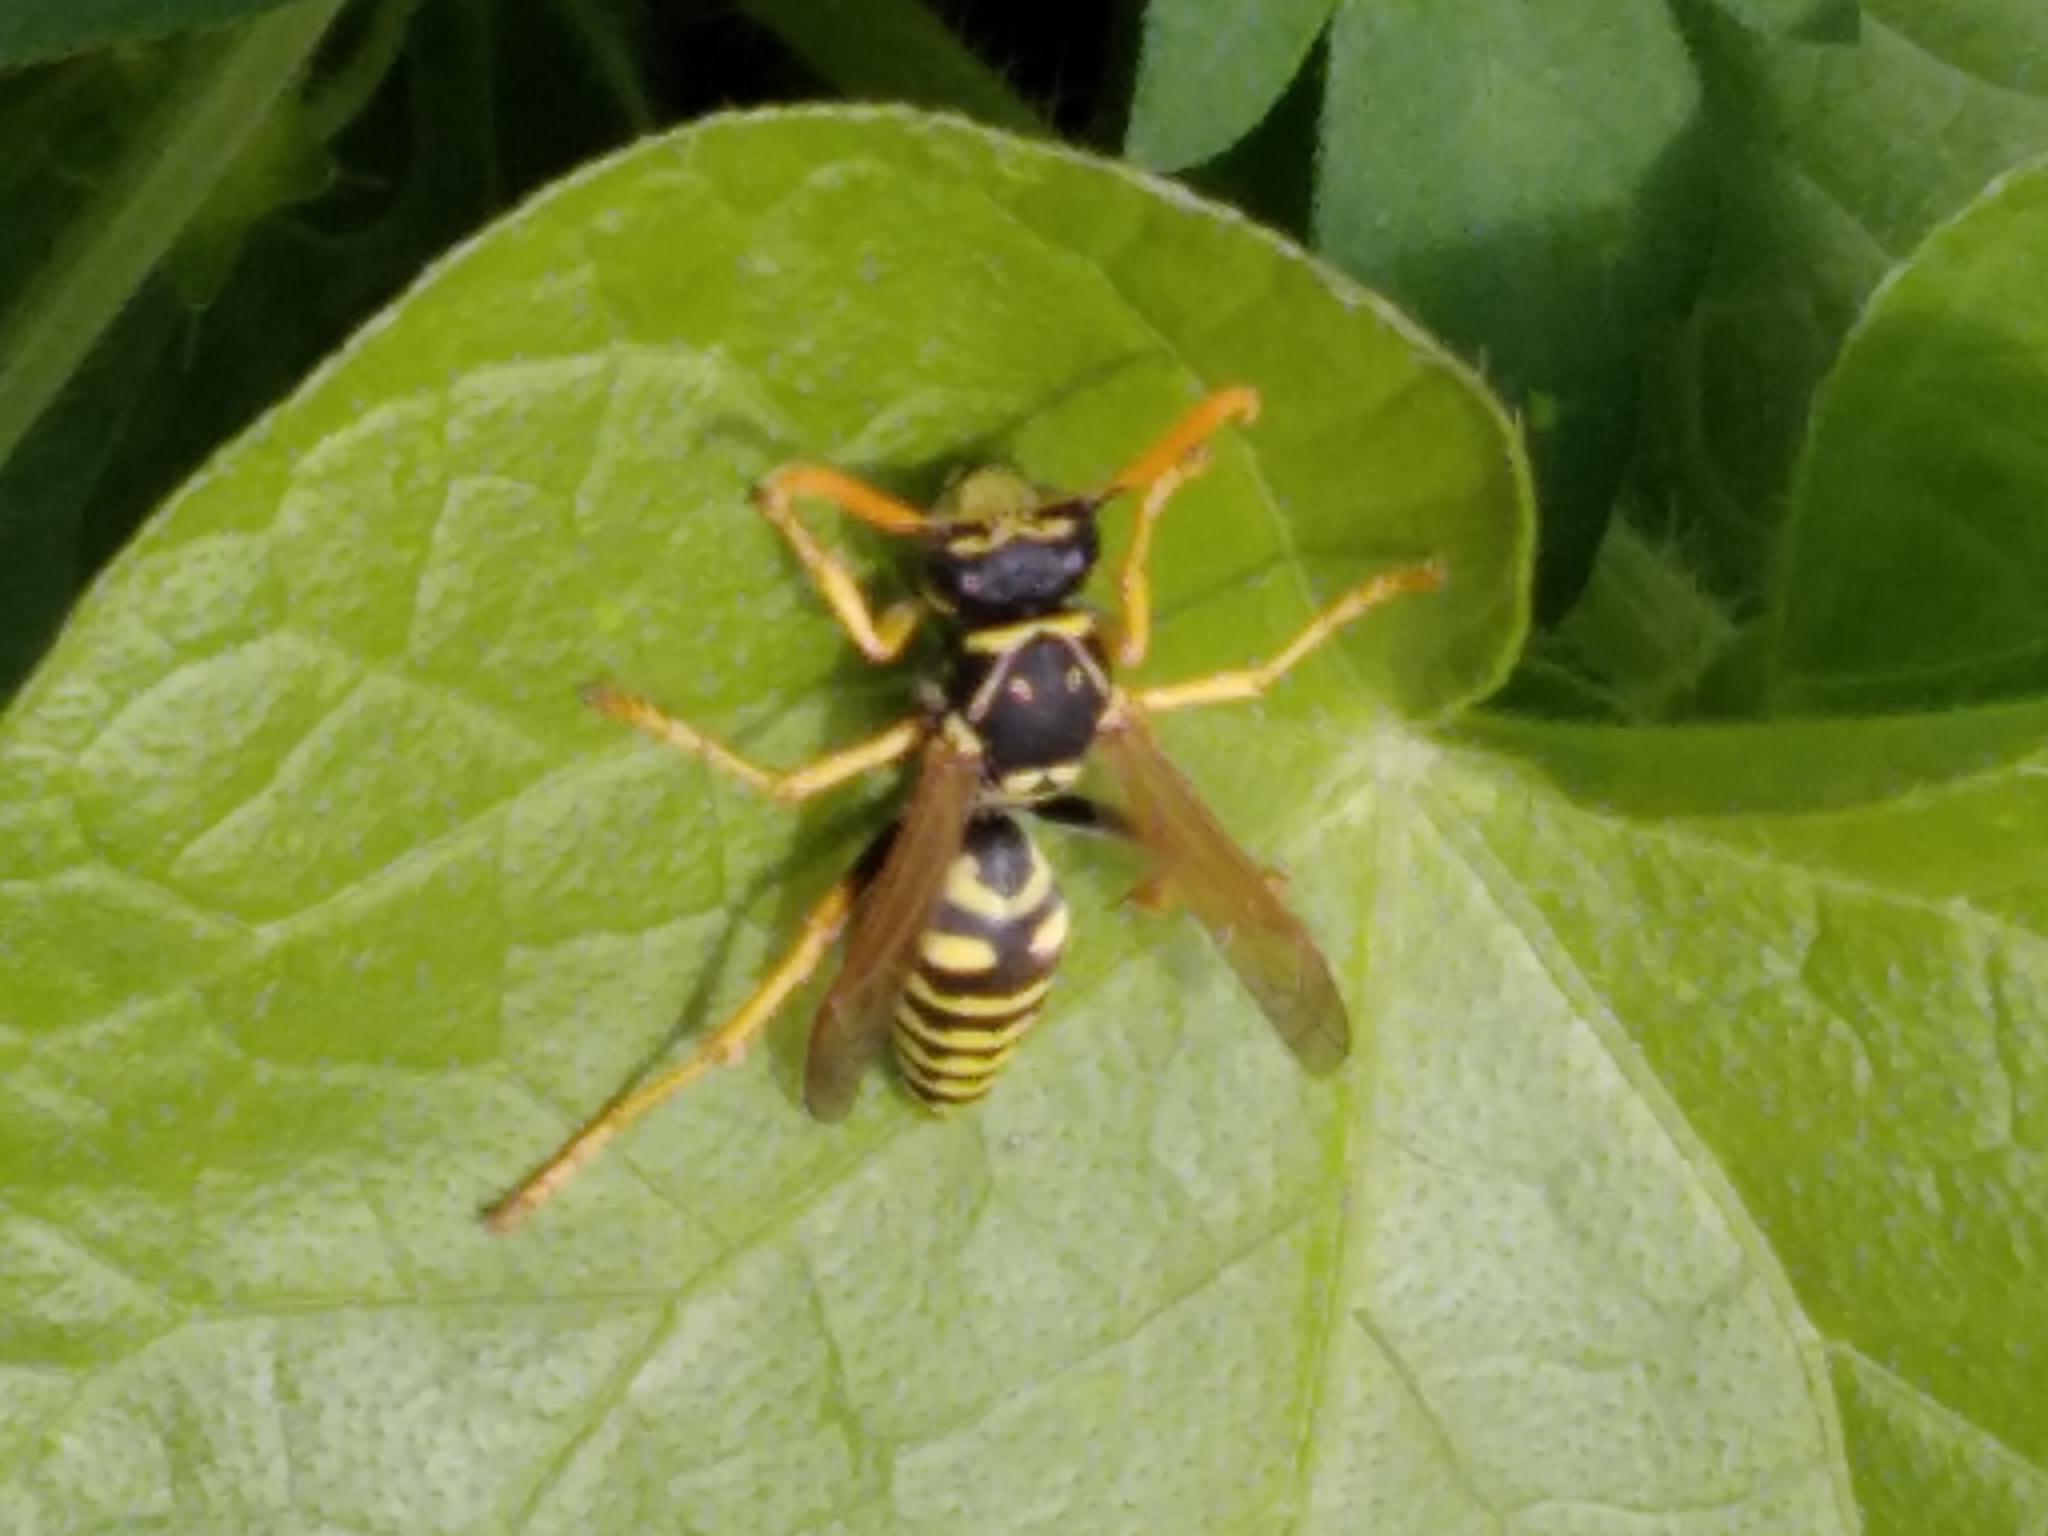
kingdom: Animalia
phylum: Arthropoda
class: Insecta
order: Hymenoptera
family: Eumenidae
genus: Polistes
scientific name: Polistes dominula
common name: Paper wasp
